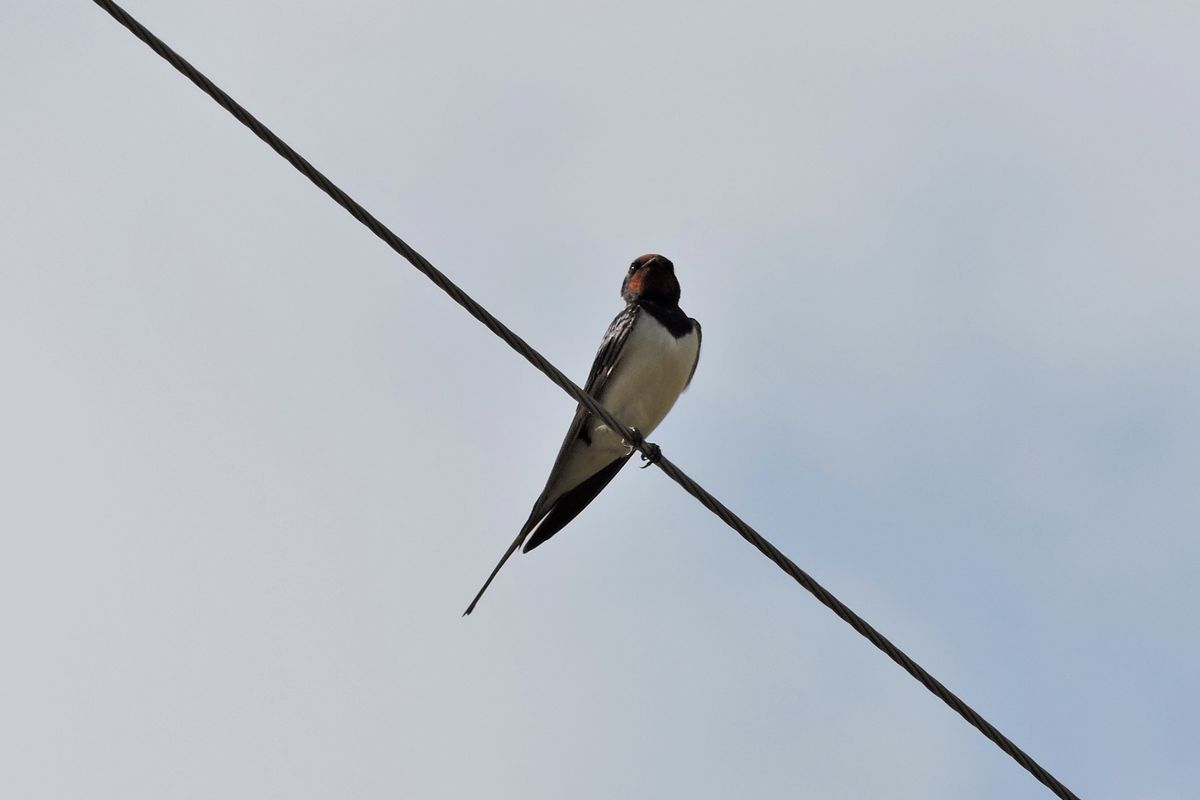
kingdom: Animalia
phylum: Chordata
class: Aves
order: Passeriformes
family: Hirundinidae
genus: Hirundo
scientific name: Hirundo rustica
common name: Barn swallow
